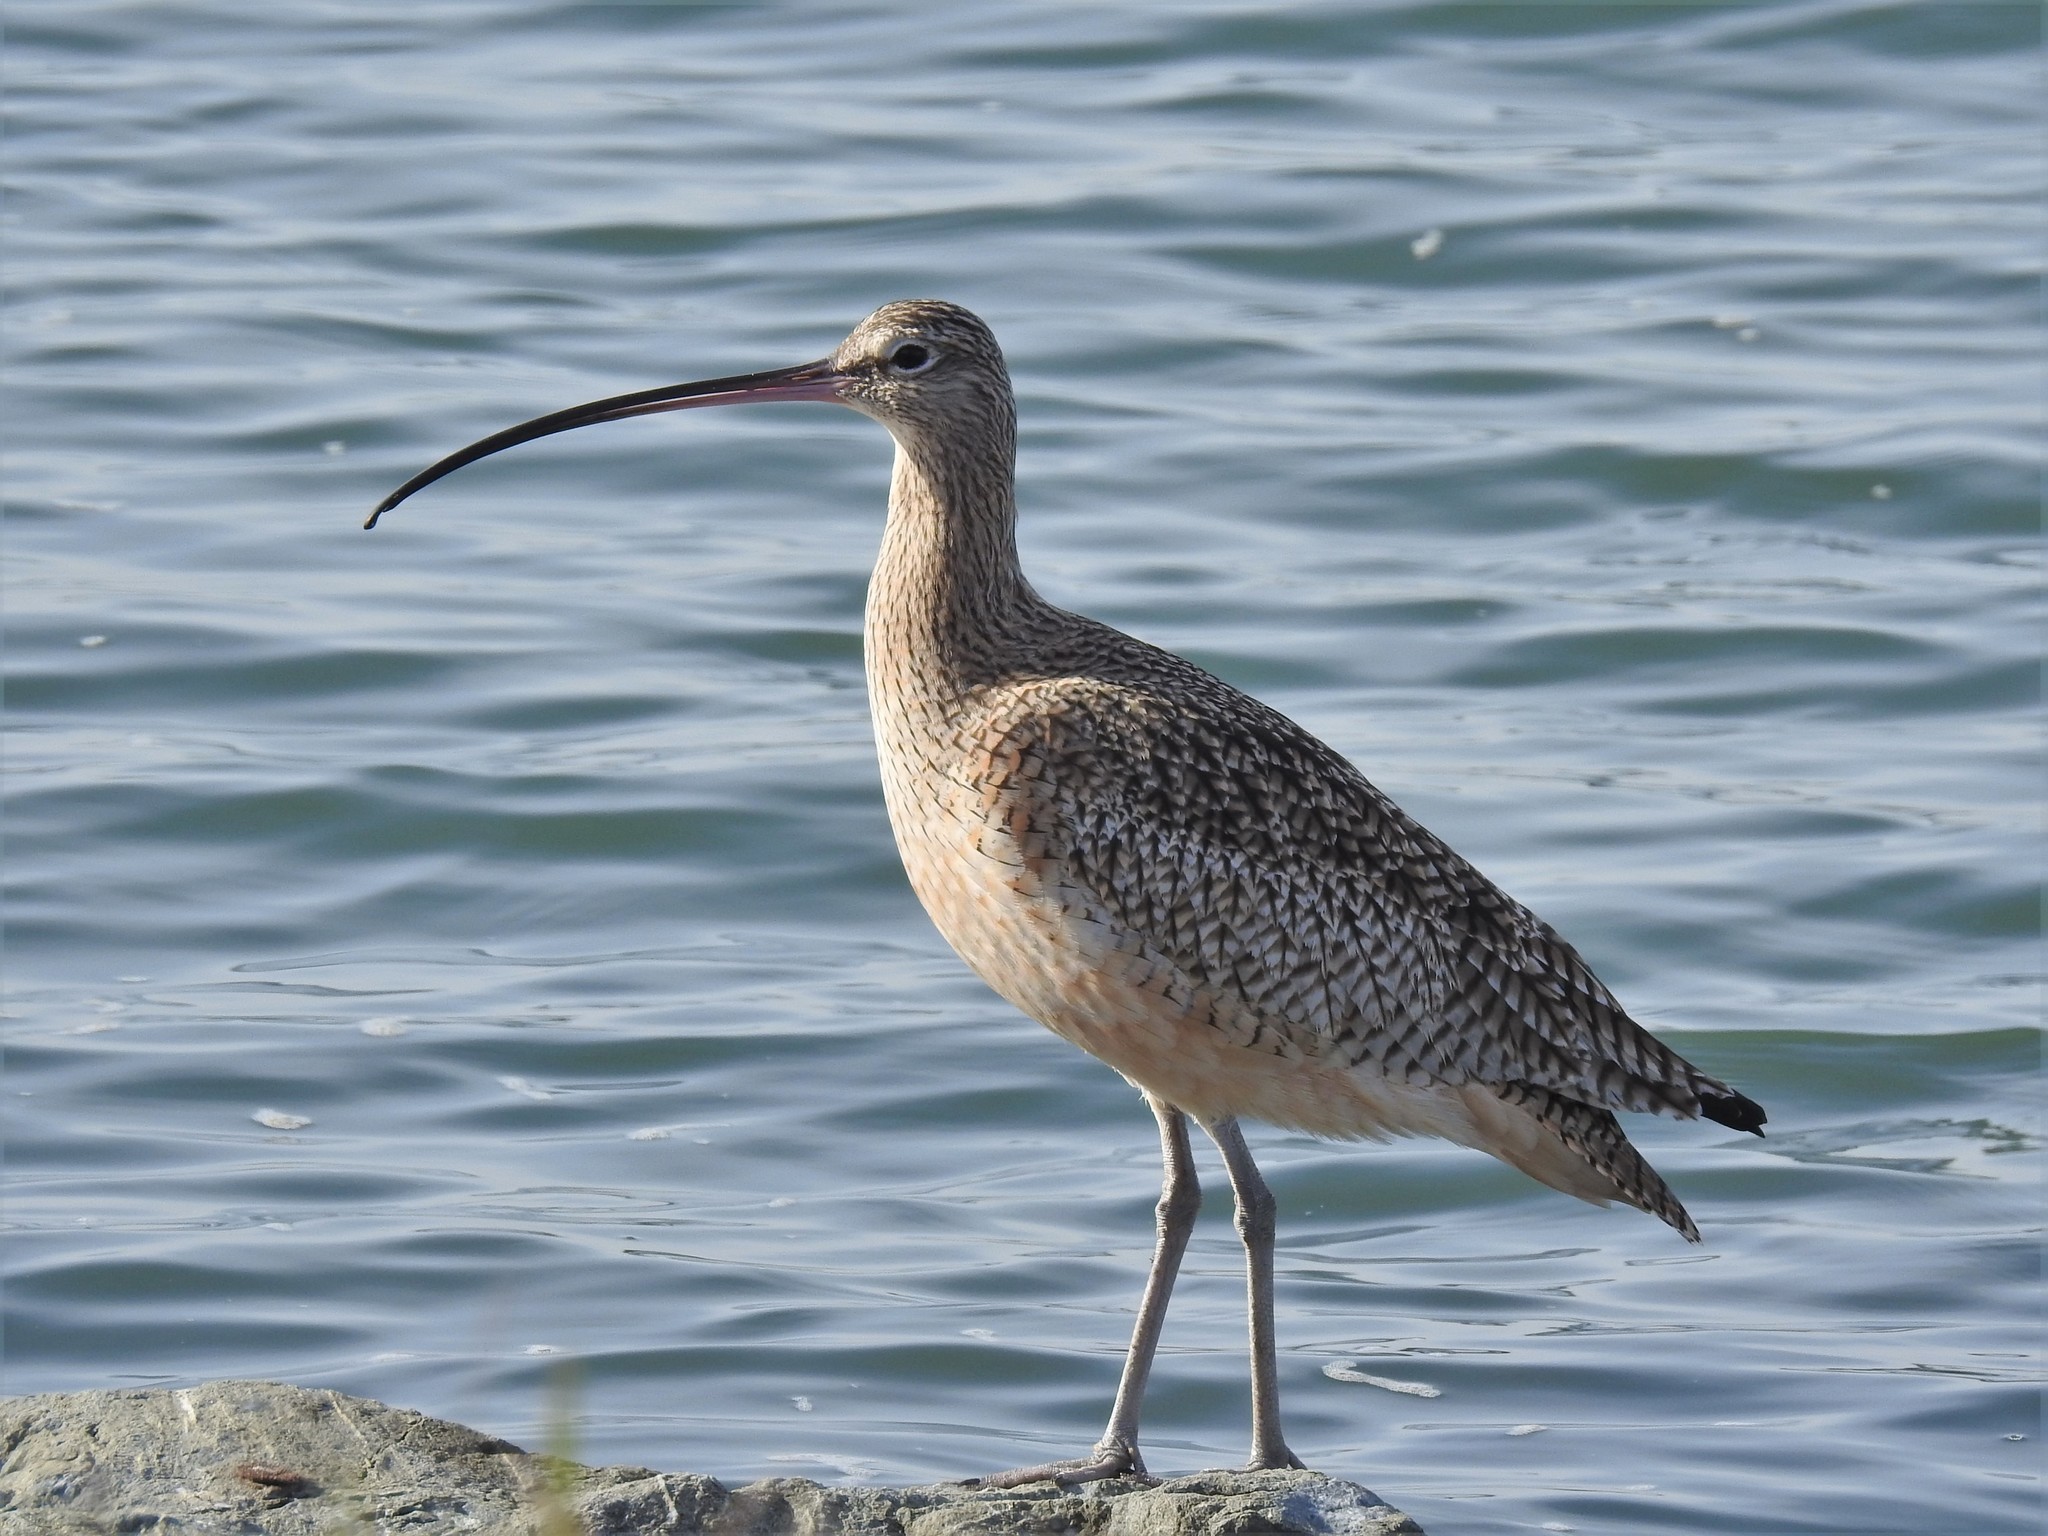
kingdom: Animalia
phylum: Chordata
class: Aves
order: Charadriiformes
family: Scolopacidae
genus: Numenius
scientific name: Numenius americanus
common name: Long-billed curlew
